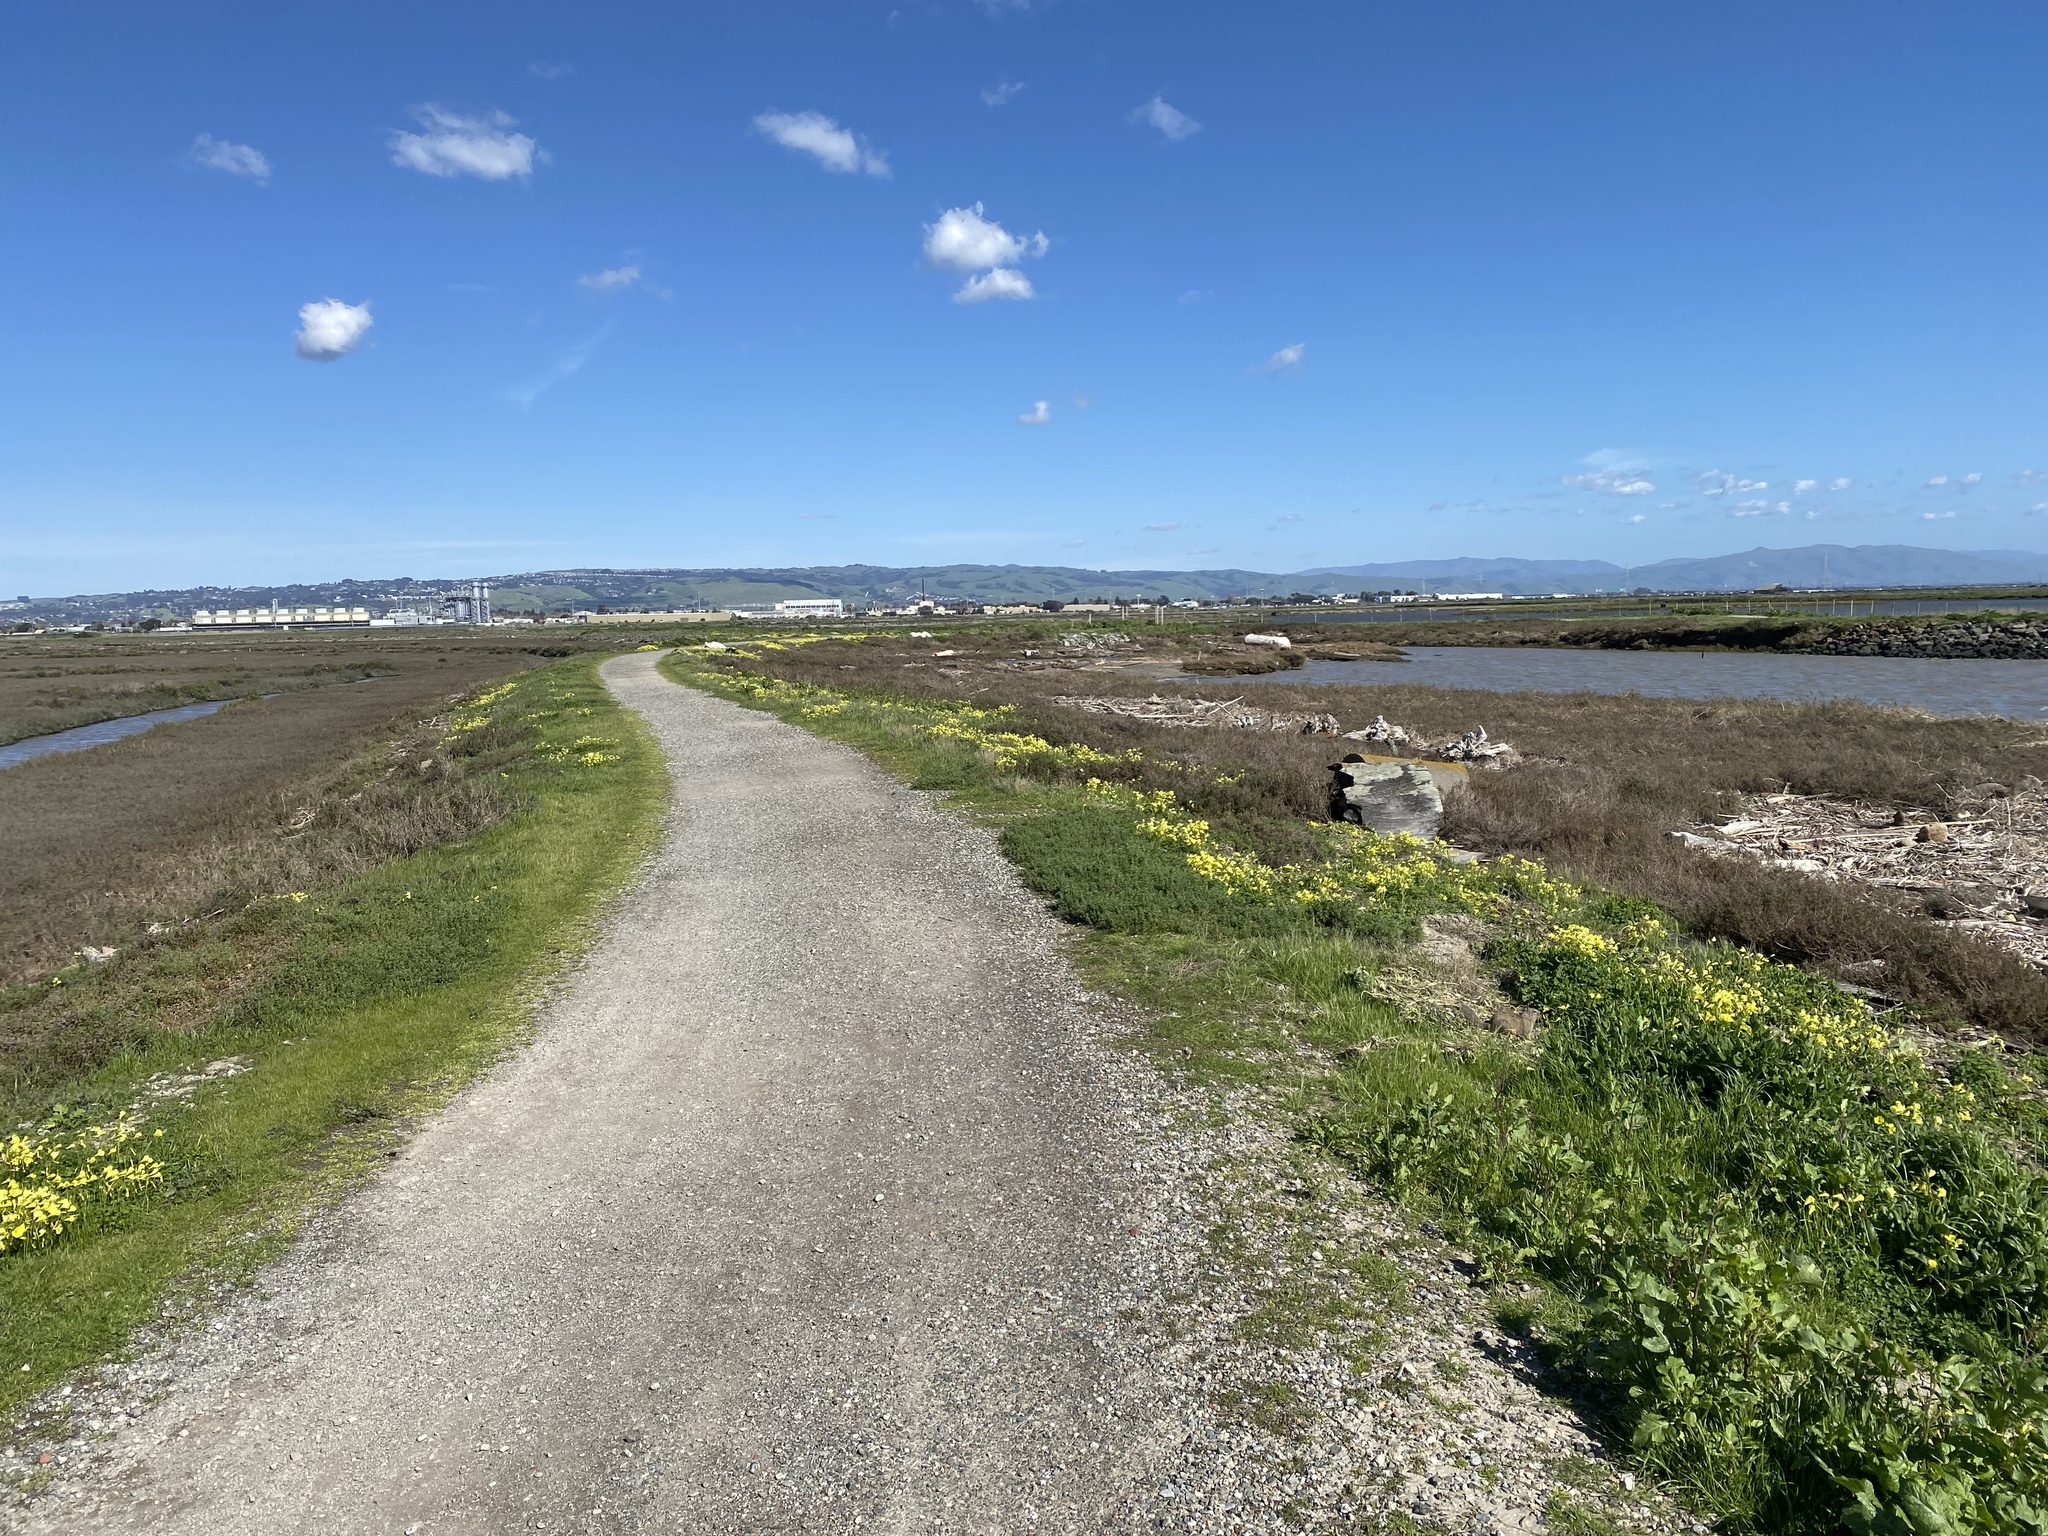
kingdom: Plantae
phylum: Tracheophyta
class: Magnoliopsida
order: Caryophyllales
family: Frankeniaceae
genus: Frankenia
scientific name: Frankenia salina
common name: Alkali seaheath
